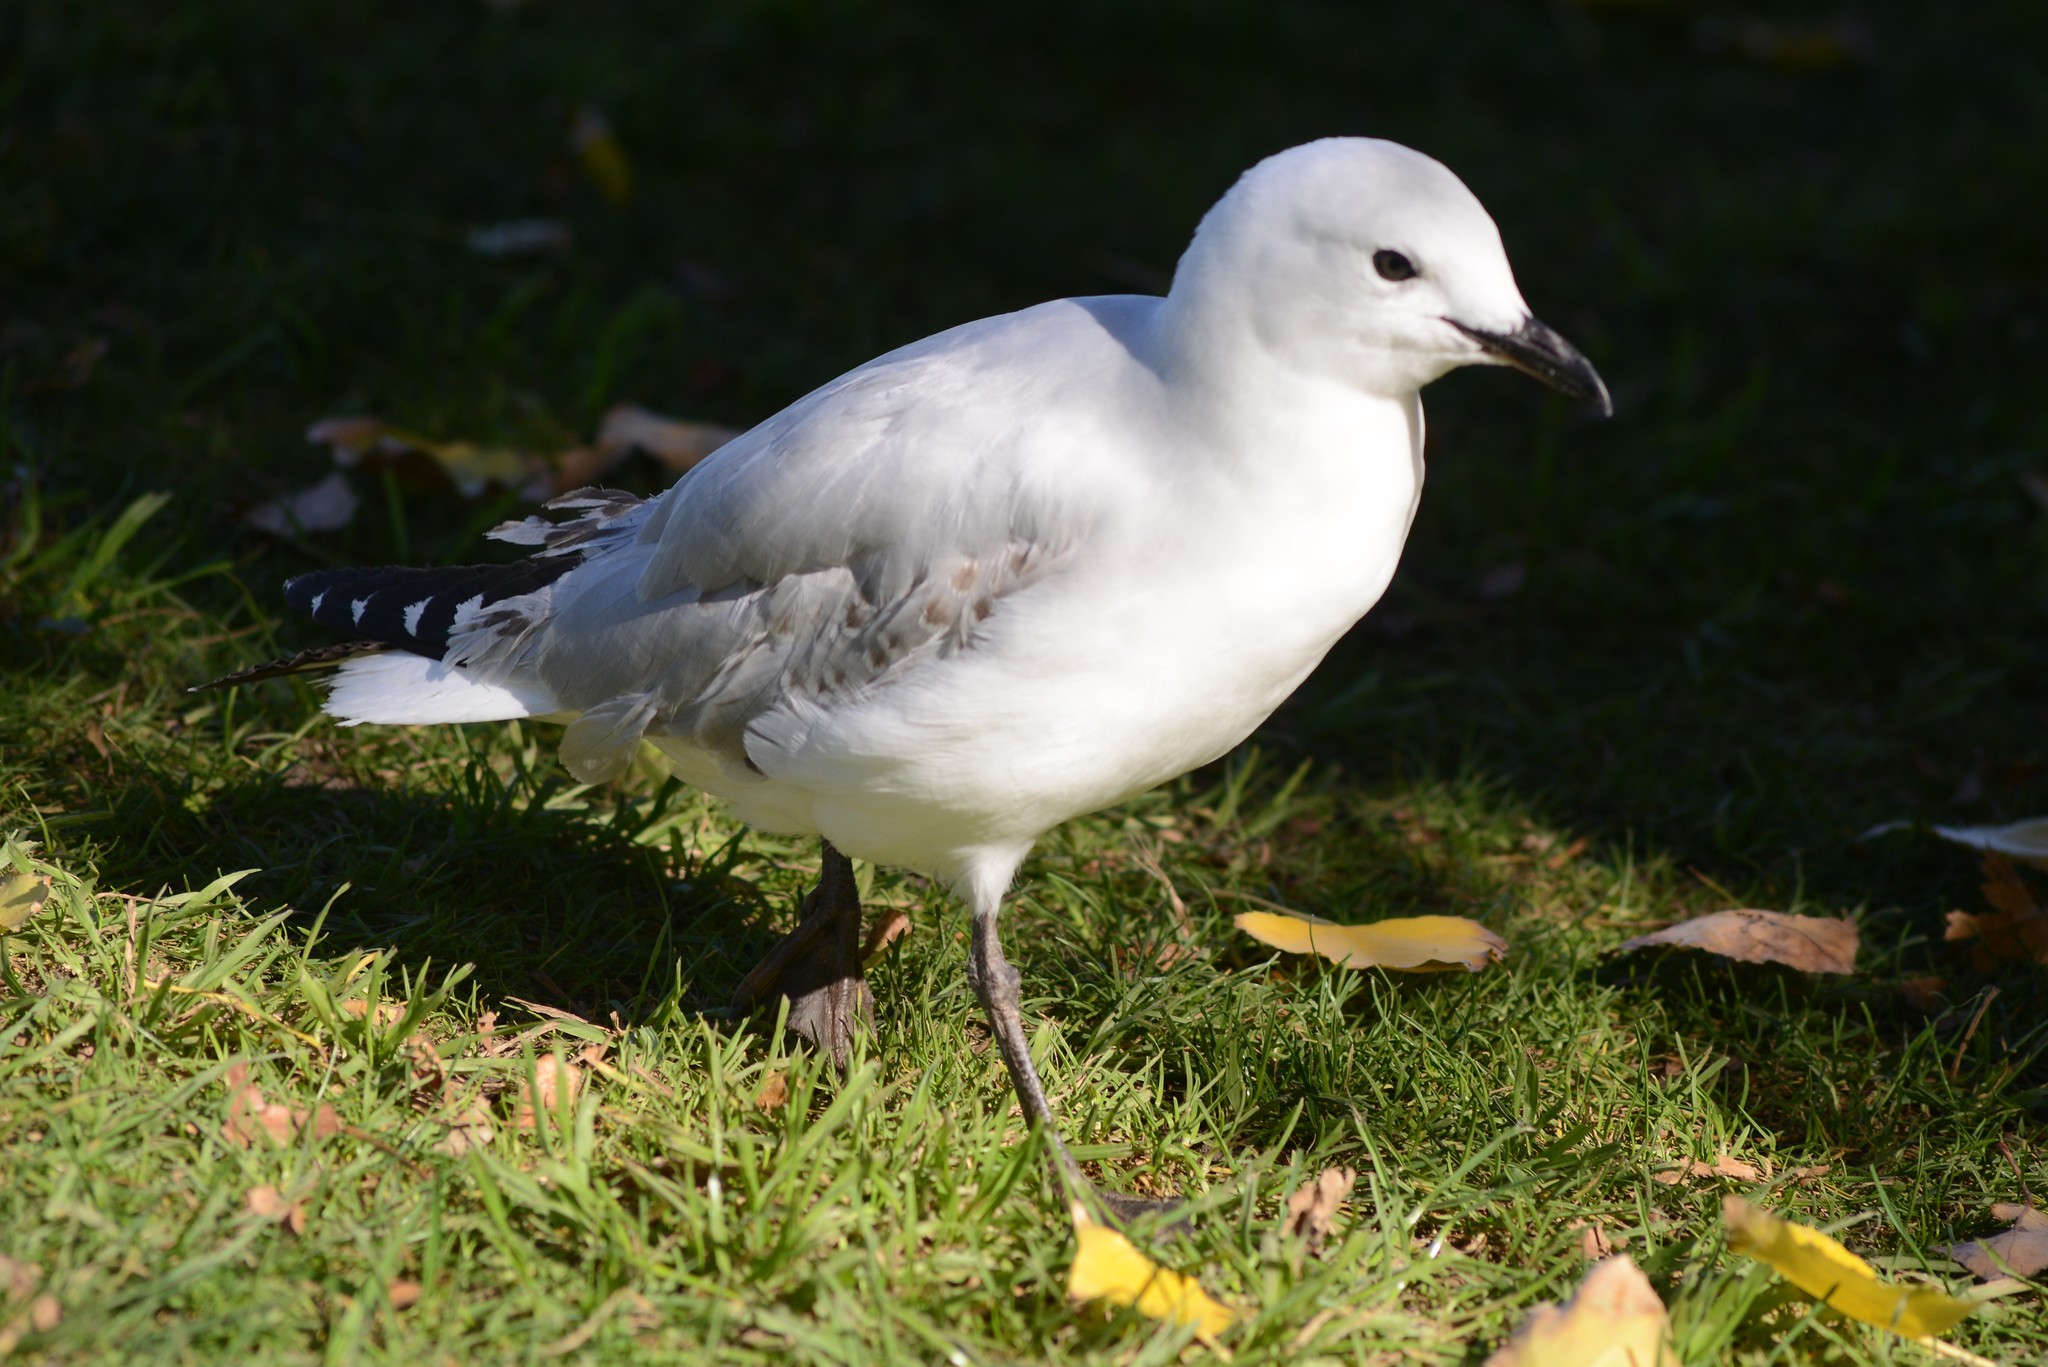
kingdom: Animalia
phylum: Chordata
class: Aves
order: Charadriiformes
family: Laridae
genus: Chroicocephalus
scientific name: Chroicocephalus novaehollandiae
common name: Silver gull
